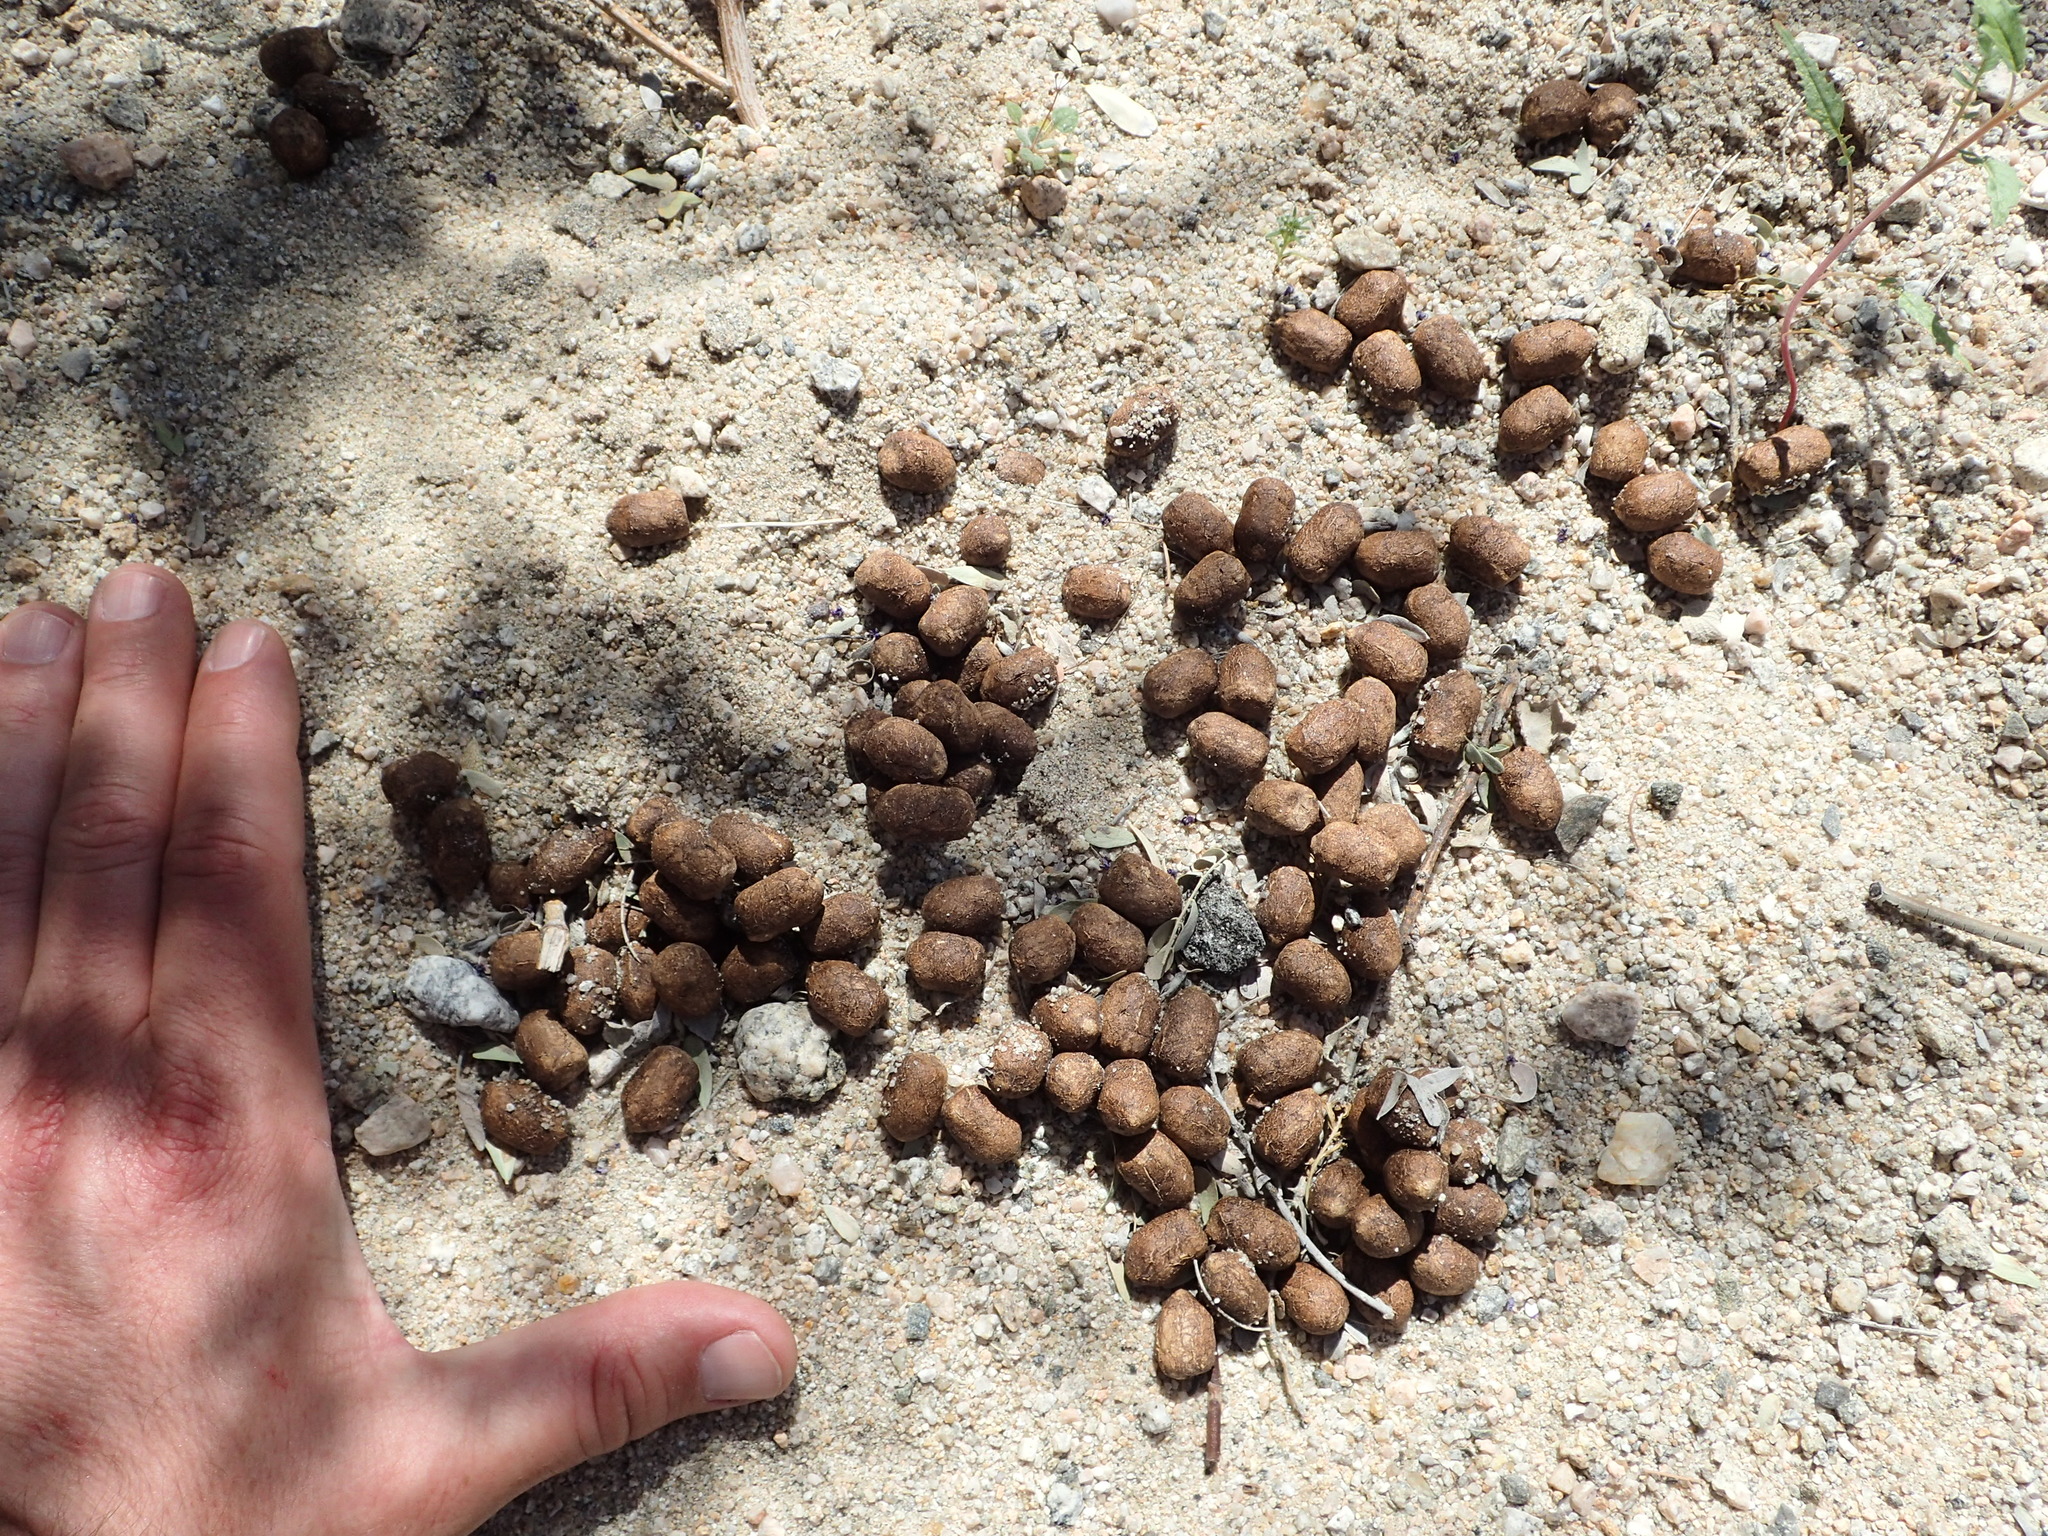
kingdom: Animalia
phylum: Chordata
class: Mammalia
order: Artiodactyla
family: Cervidae
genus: Odocoileus
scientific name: Odocoileus hemionus
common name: Mule deer
